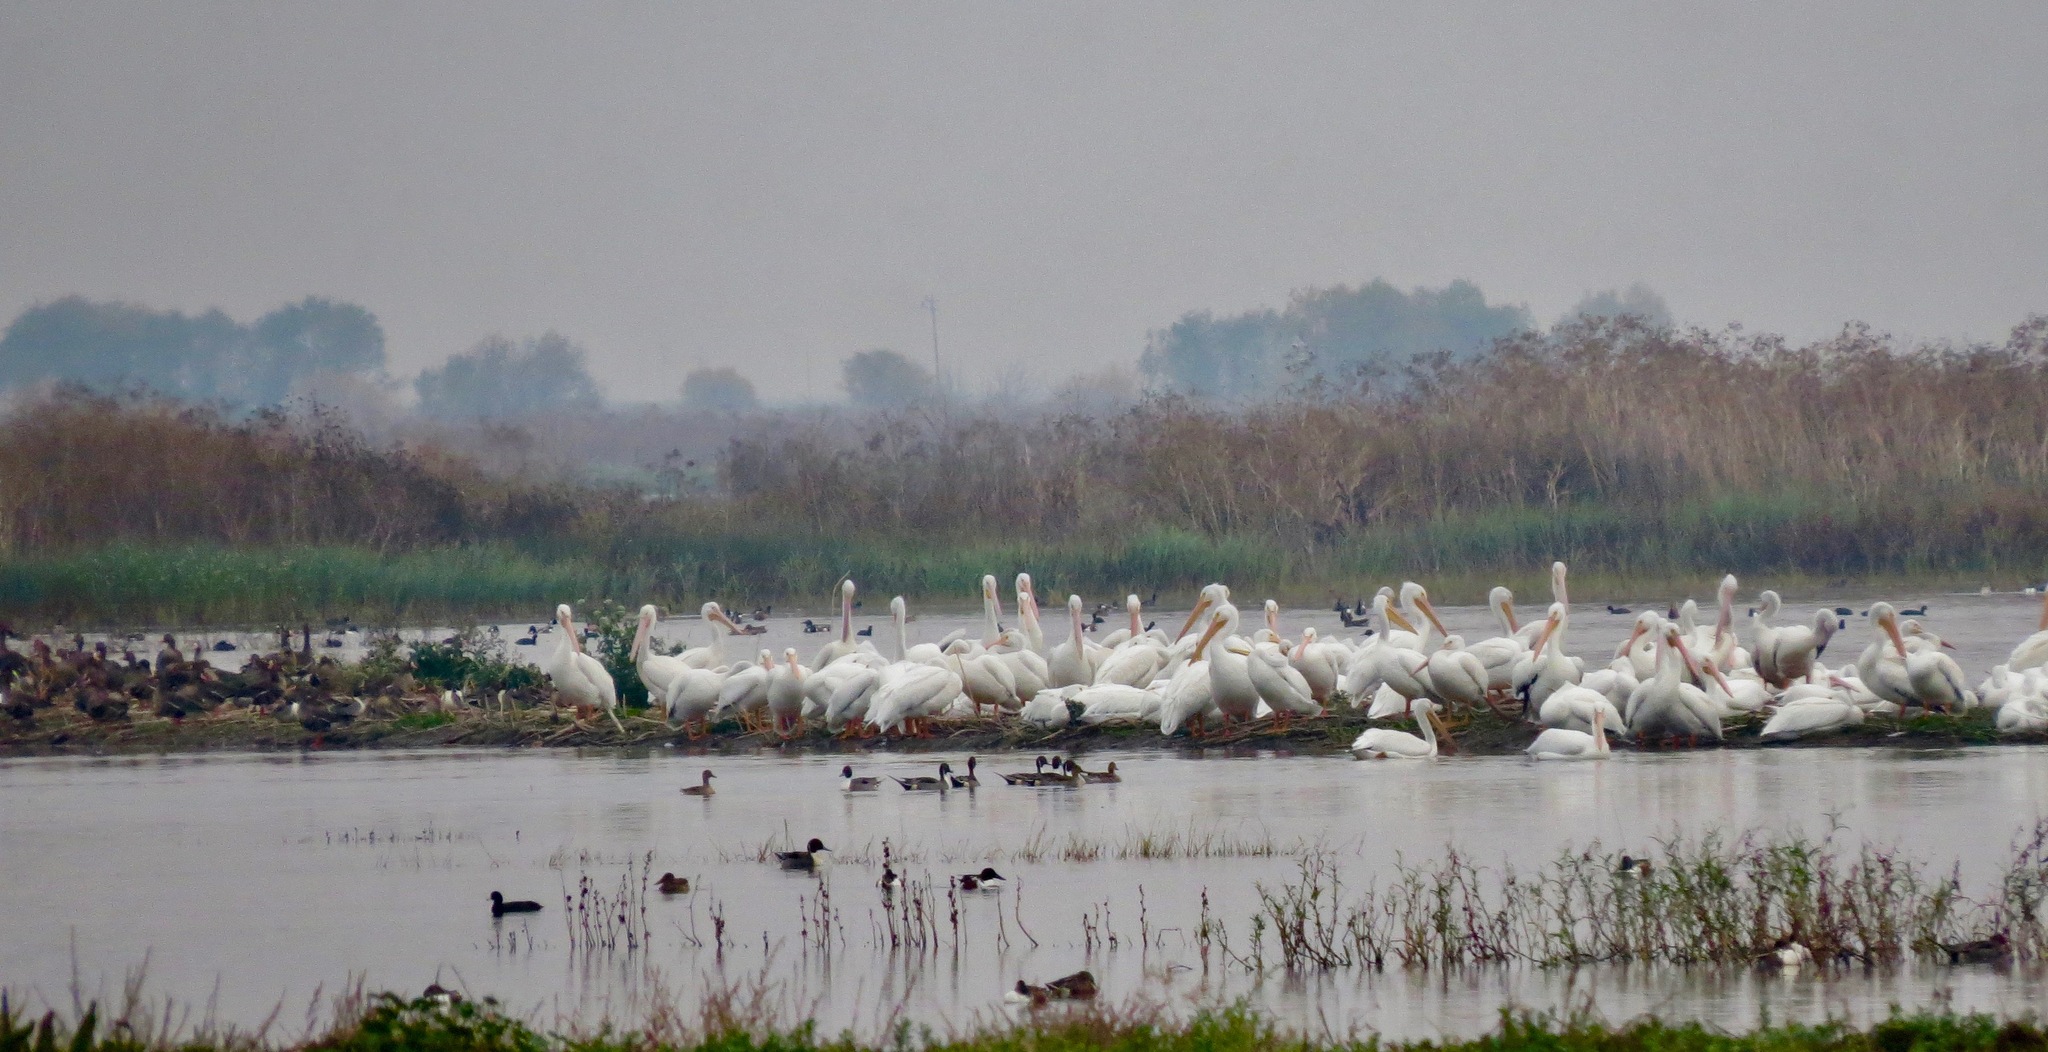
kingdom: Animalia
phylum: Chordata
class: Aves
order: Pelecaniformes
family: Pelecanidae
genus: Pelecanus
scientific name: Pelecanus erythrorhynchos
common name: American white pelican
